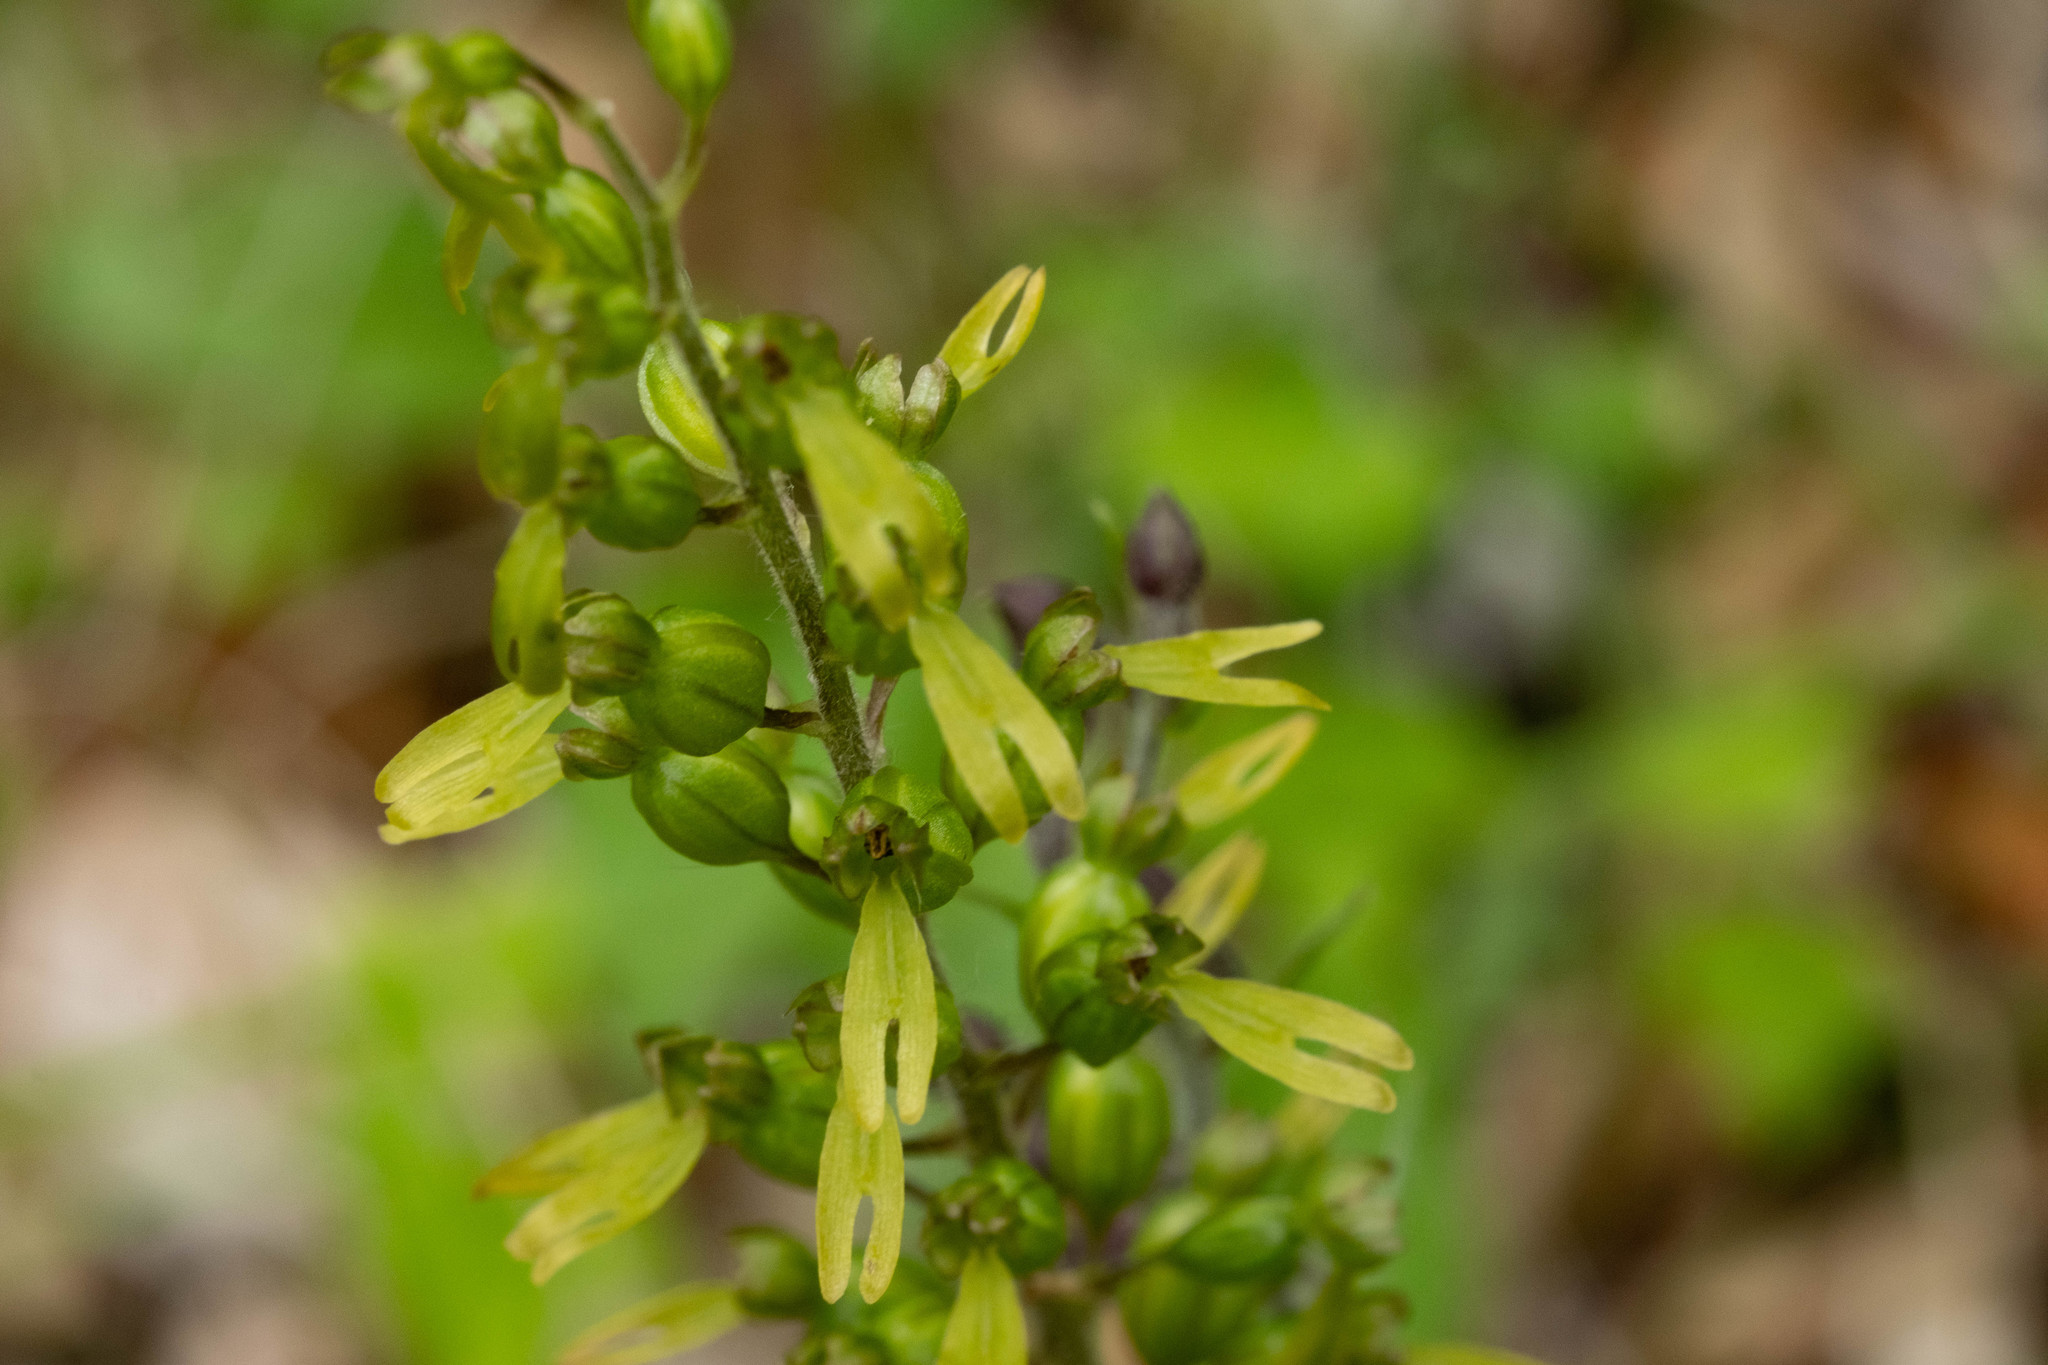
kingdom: Plantae
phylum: Tracheophyta
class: Liliopsida
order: Asparagales
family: Orchidaceae
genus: Neottia
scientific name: Neottia ovata
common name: Common twayblade
